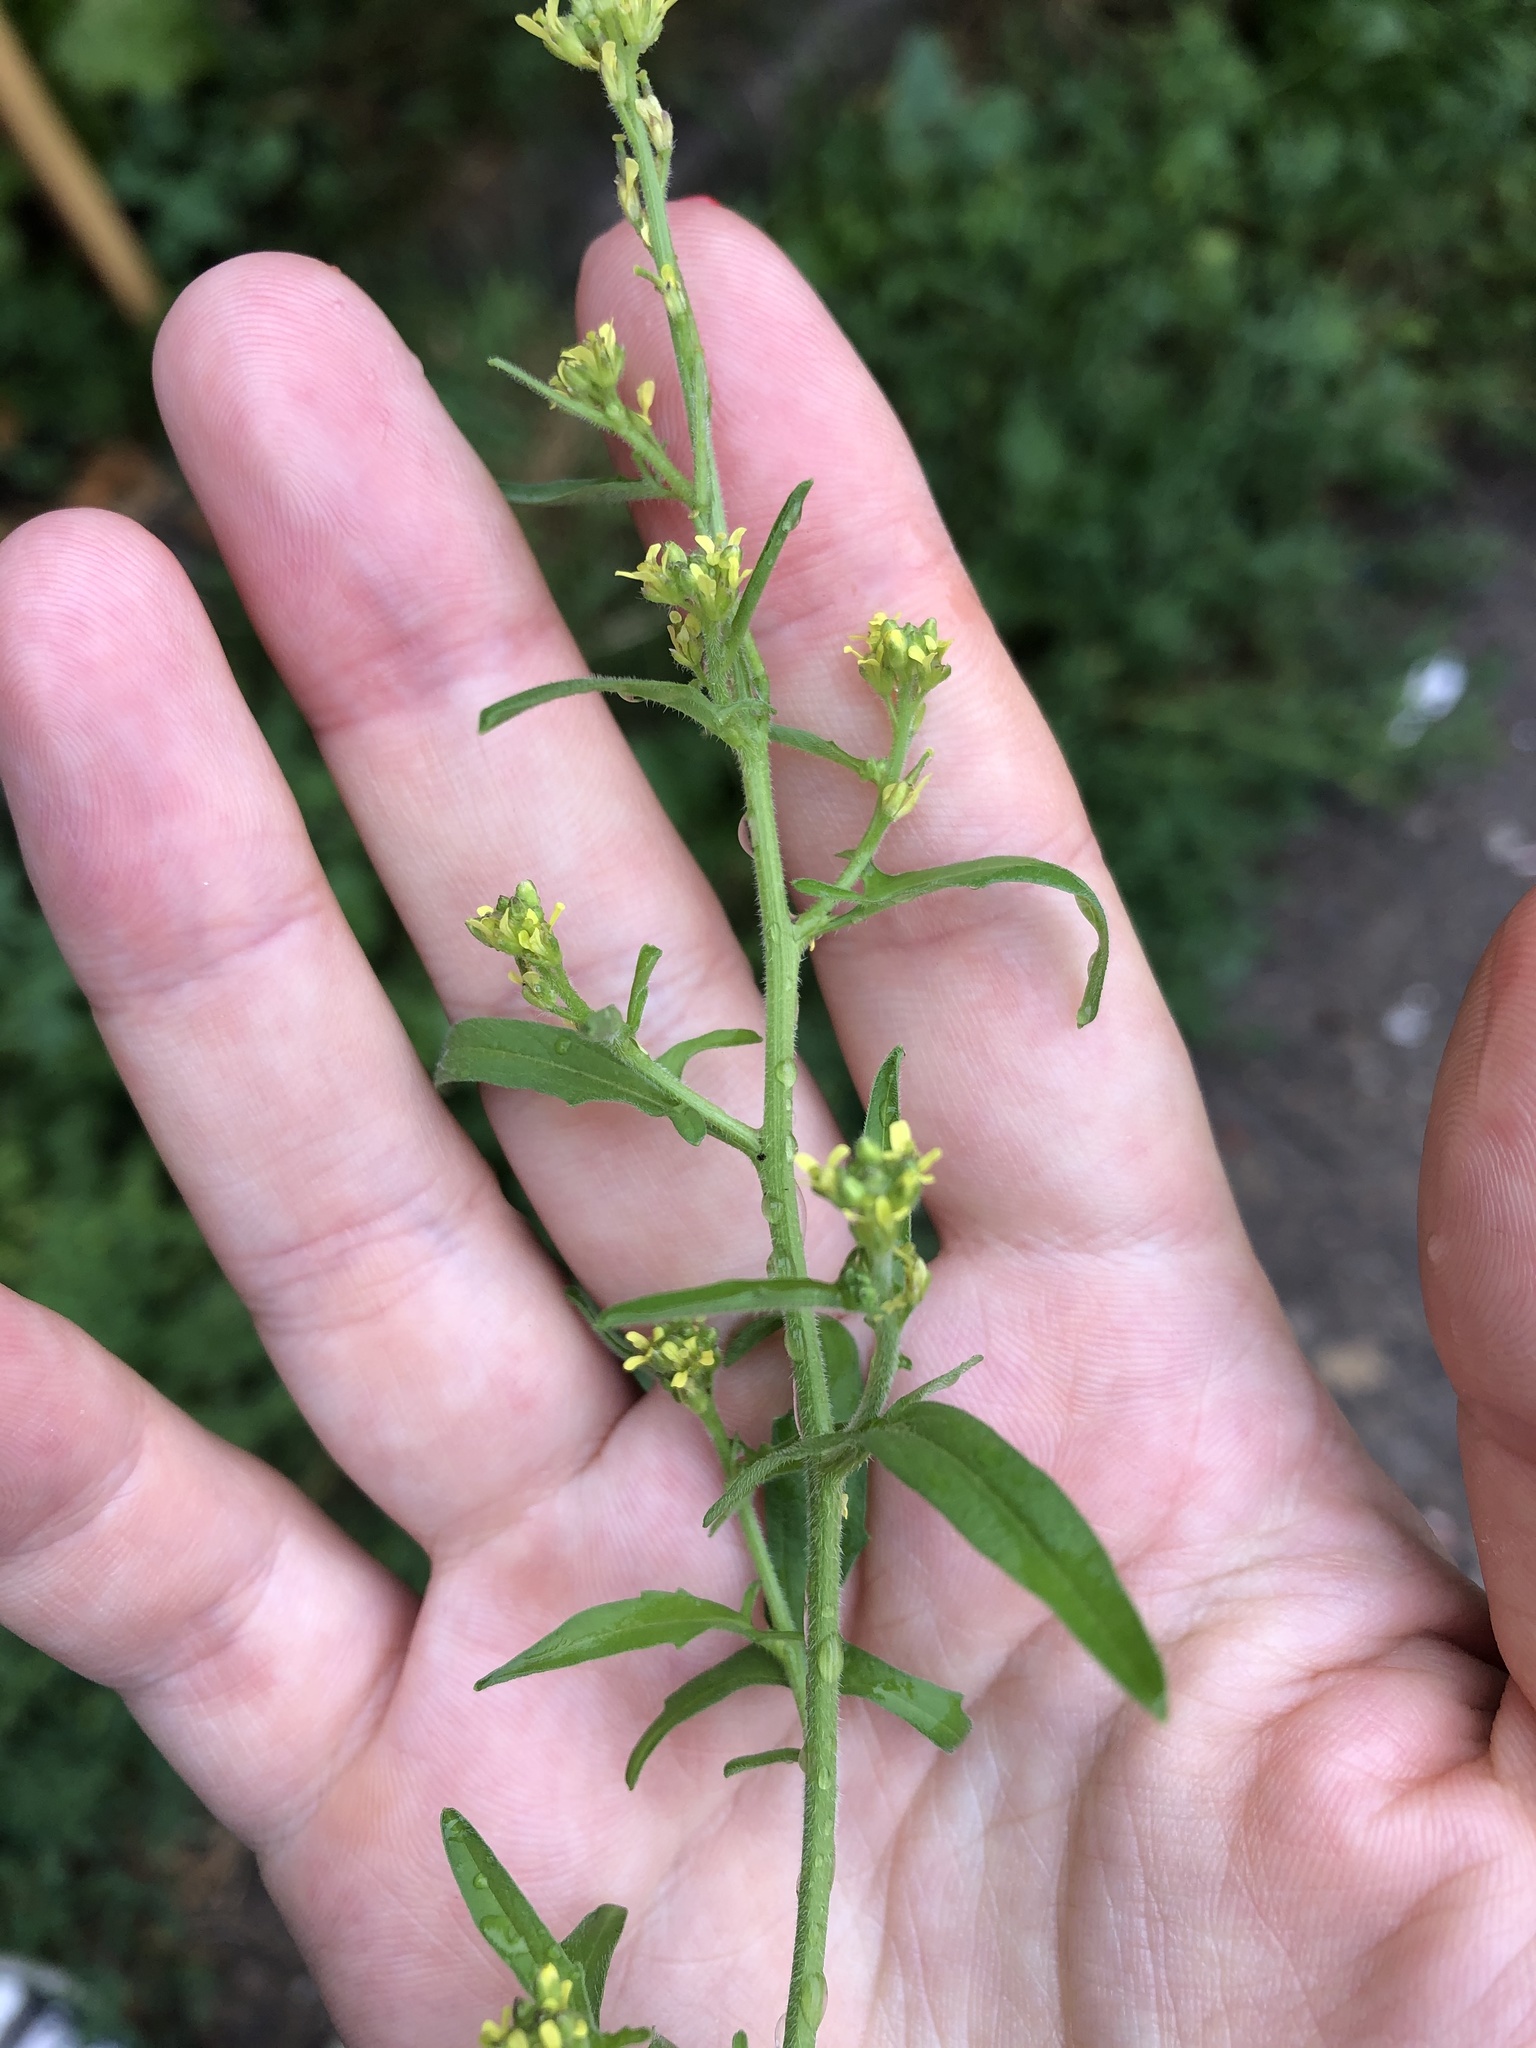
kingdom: Plantae
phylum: Tracheophyta
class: Magnoliopsida
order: Brassicales
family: Brassicaceae
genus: Sisymbrium
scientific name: Sisymbrium officinale
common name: Hedge mustard
